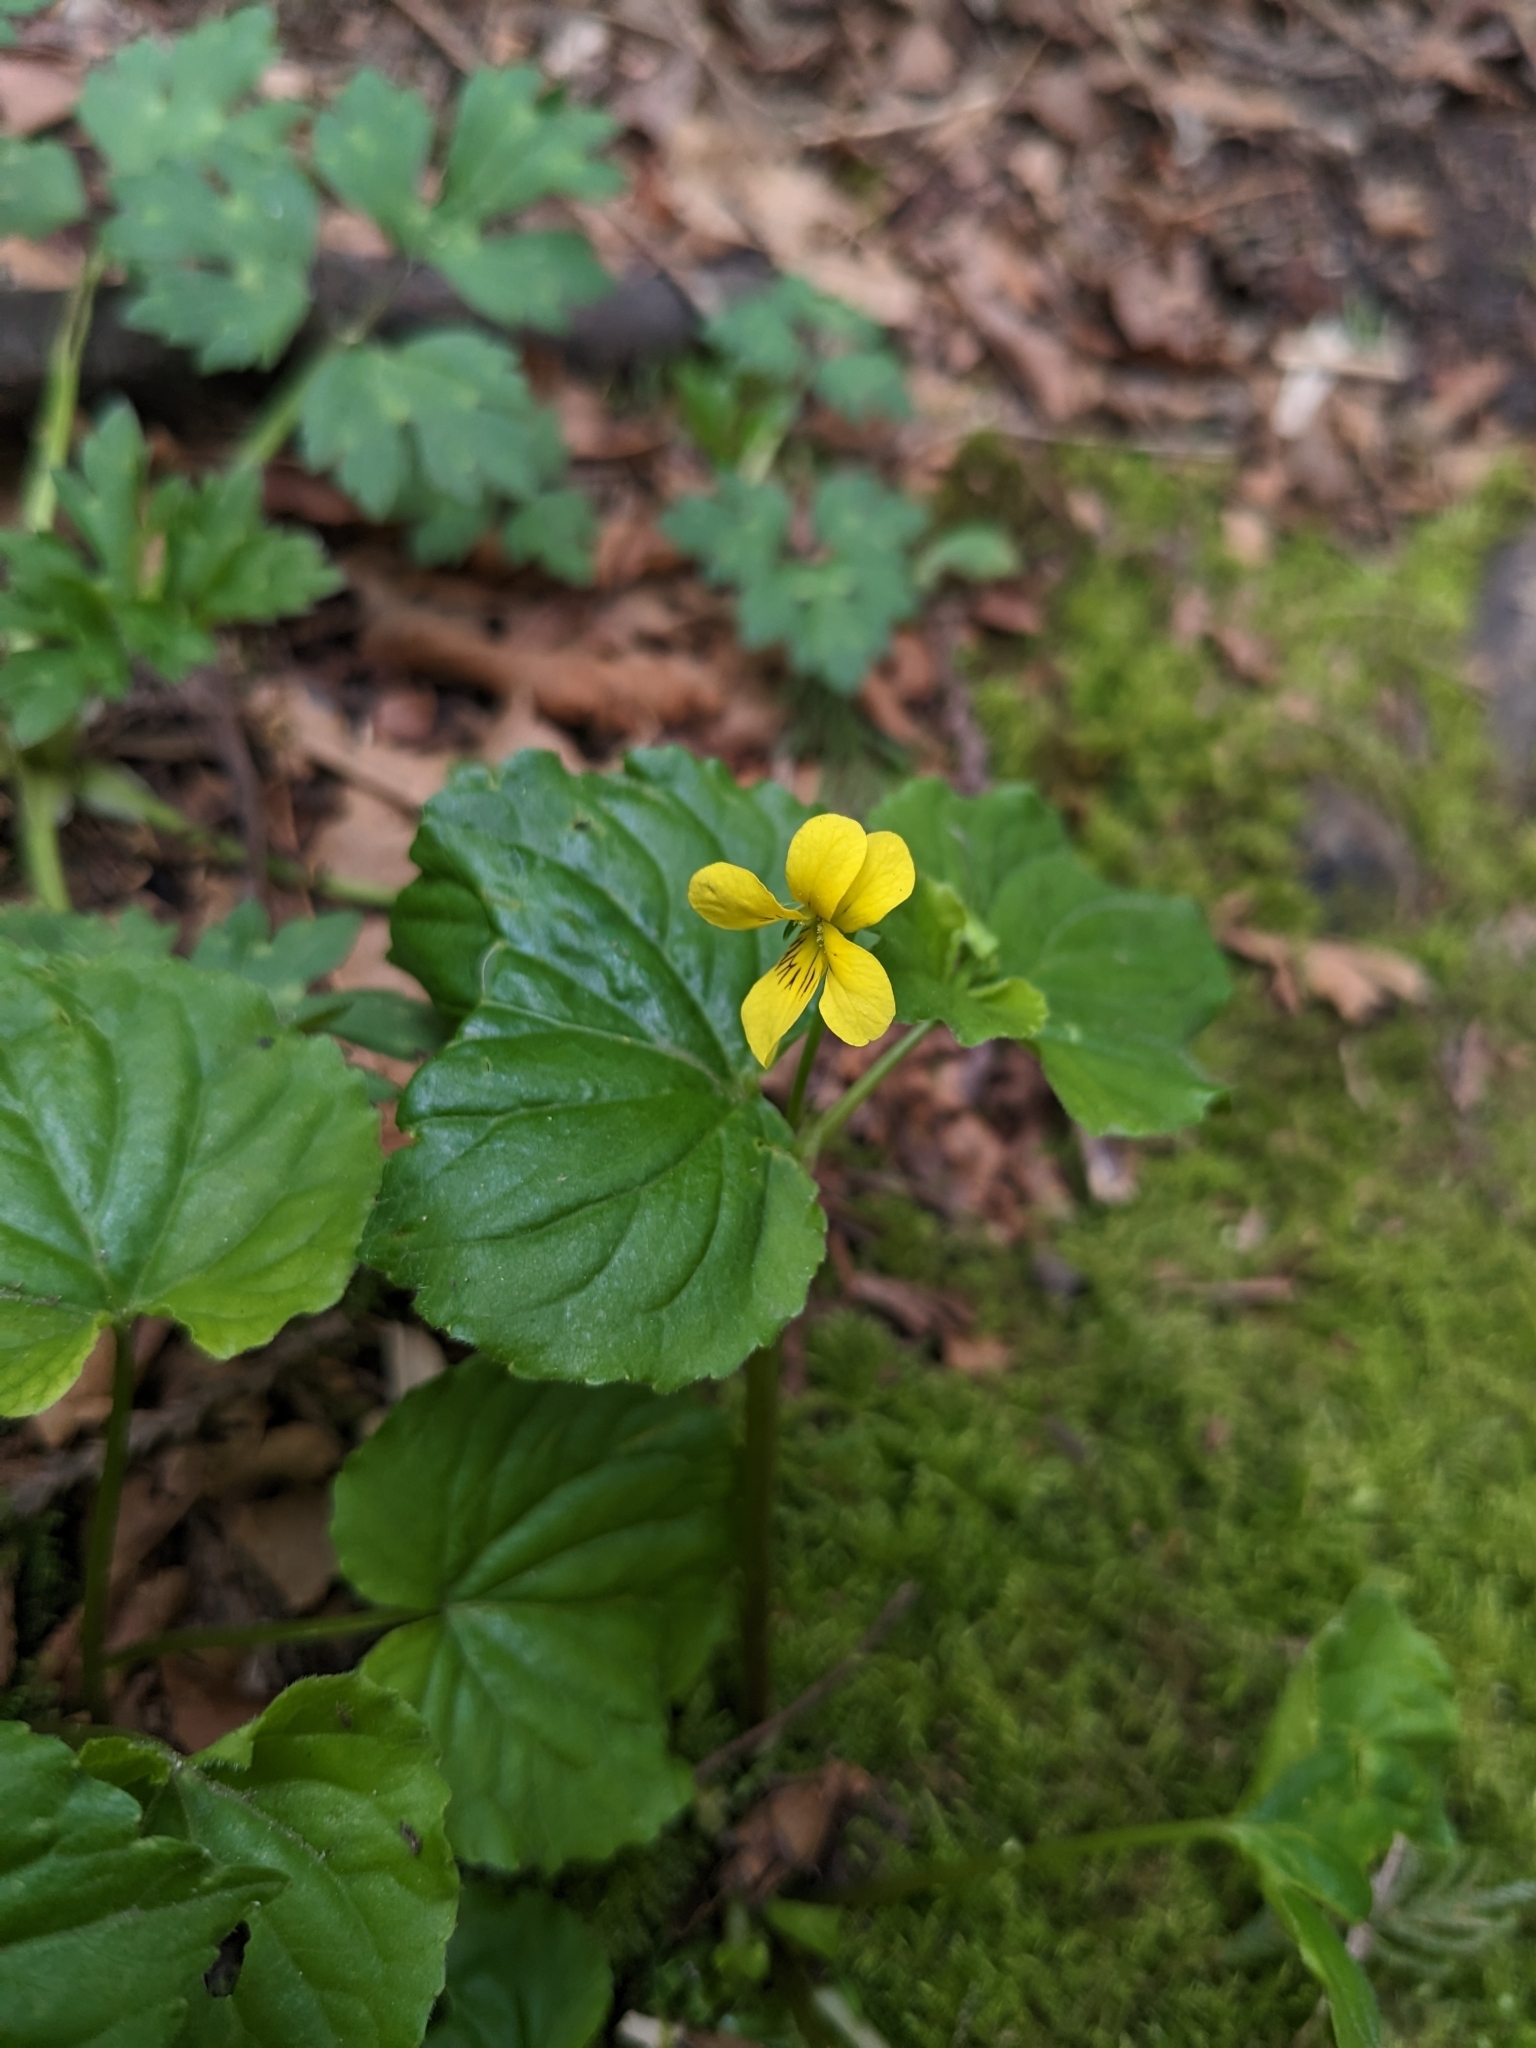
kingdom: Plantae
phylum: Tracheophyta
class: Magnoliopsida
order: Malpighiales
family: Violaceae
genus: Viola
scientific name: Viola glabella
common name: Stream violet
